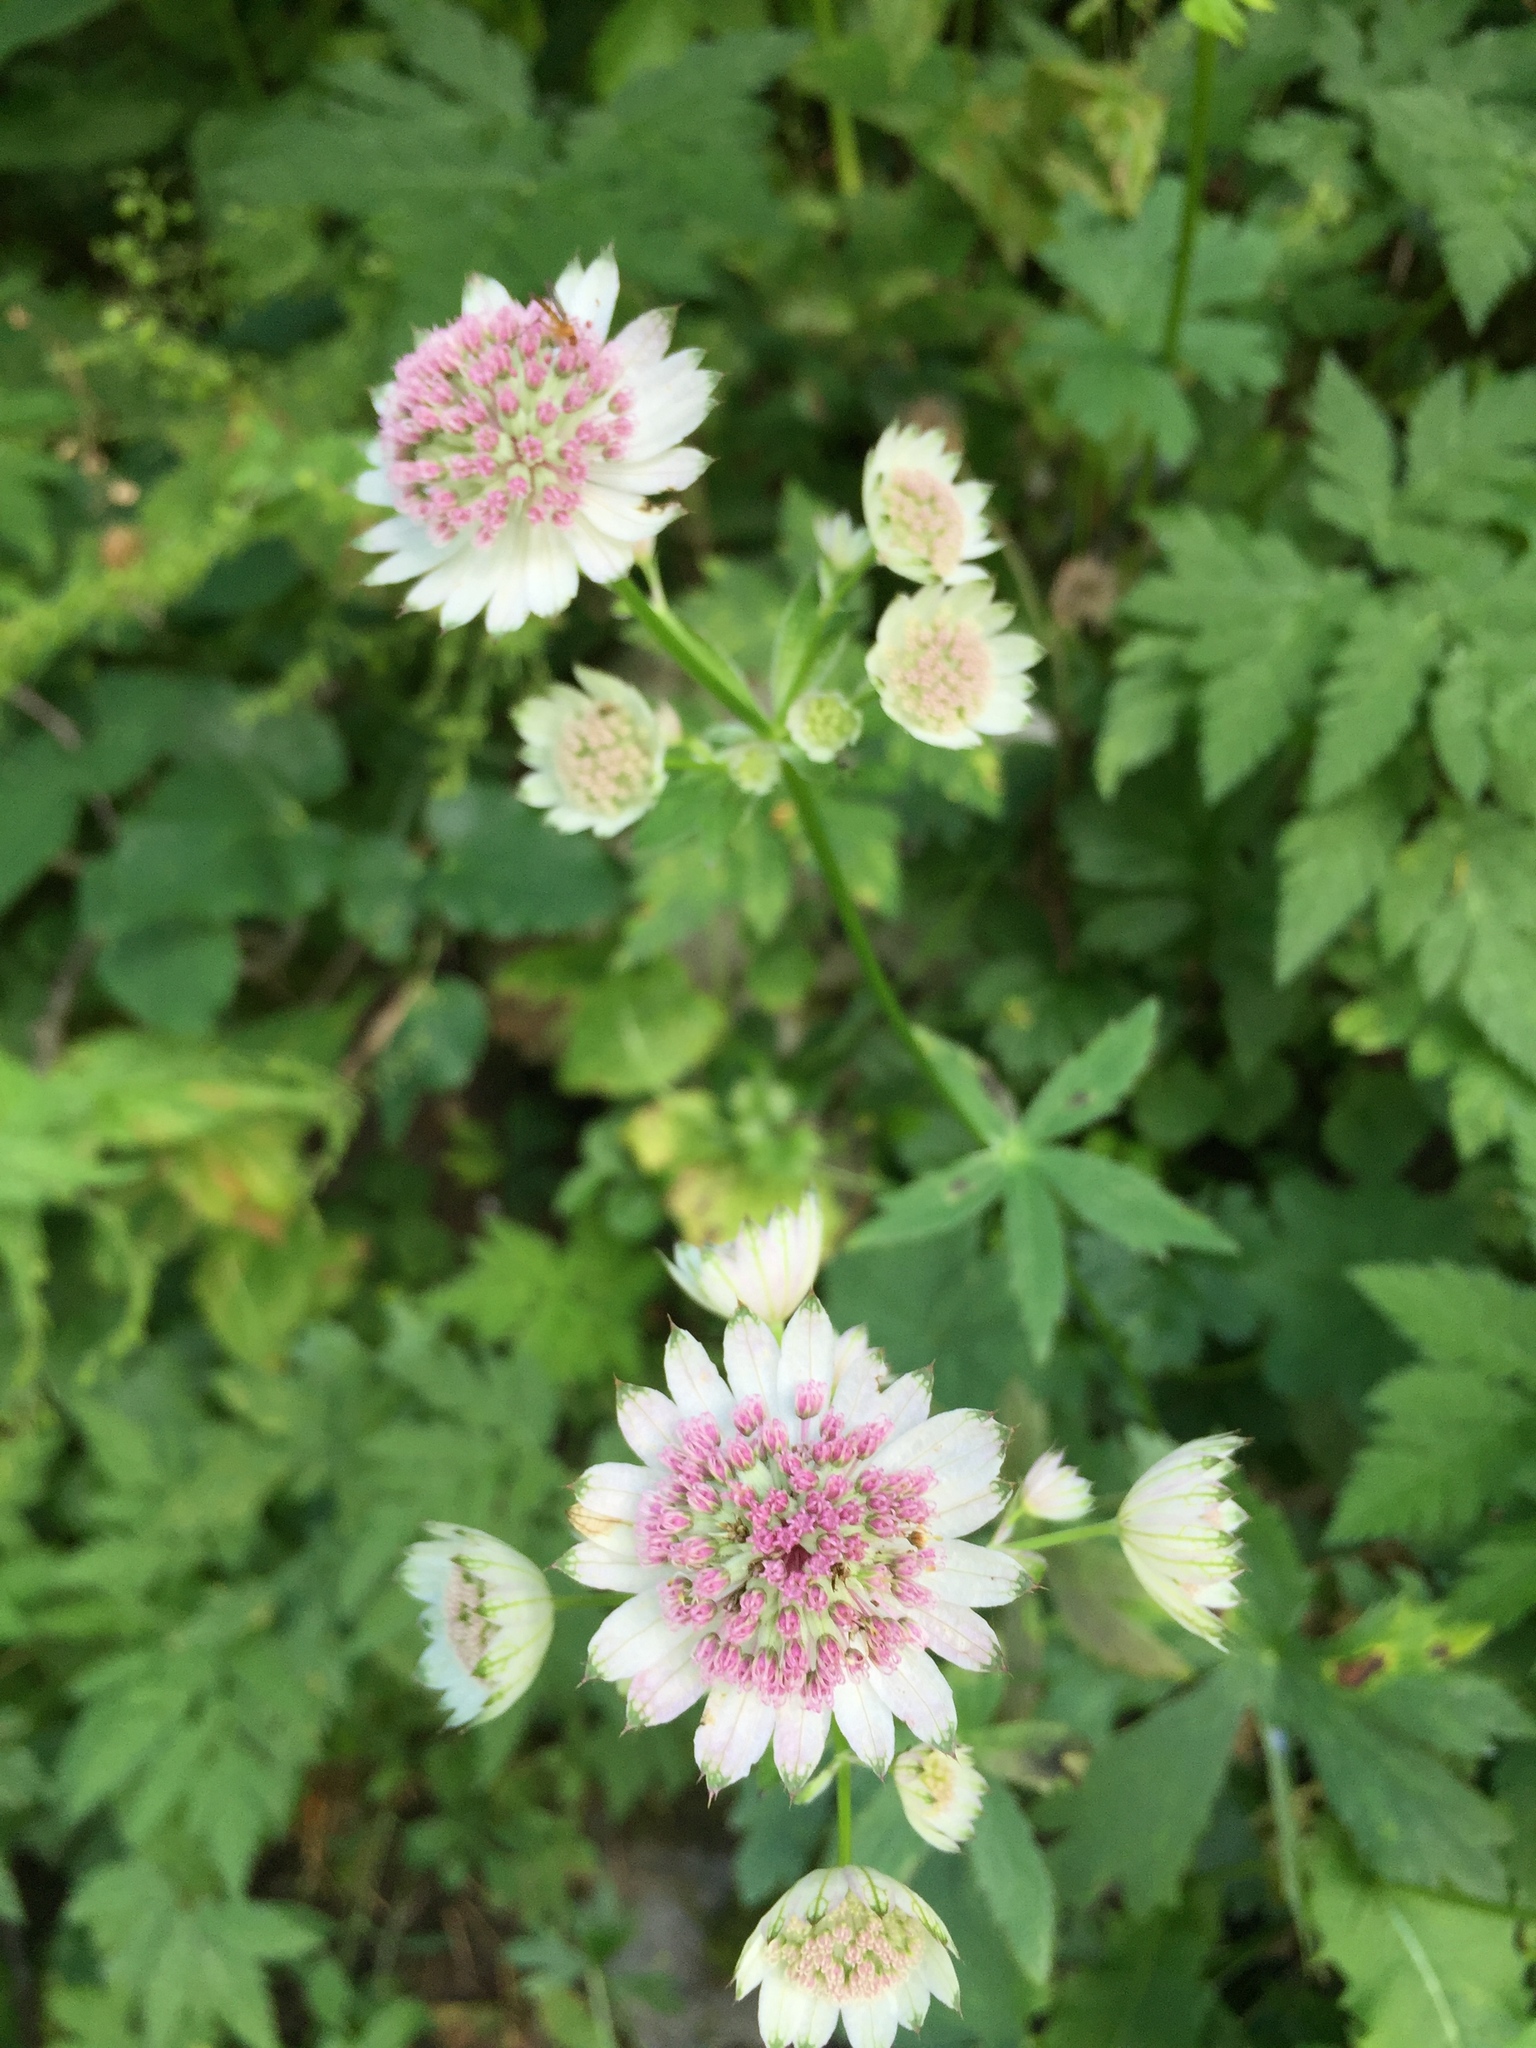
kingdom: Plantae
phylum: Tracheophyta
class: Magnoliopsida
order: Apiales
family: Apiaceae
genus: Astrantia
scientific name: Astrantia major
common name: Greater masterwort
